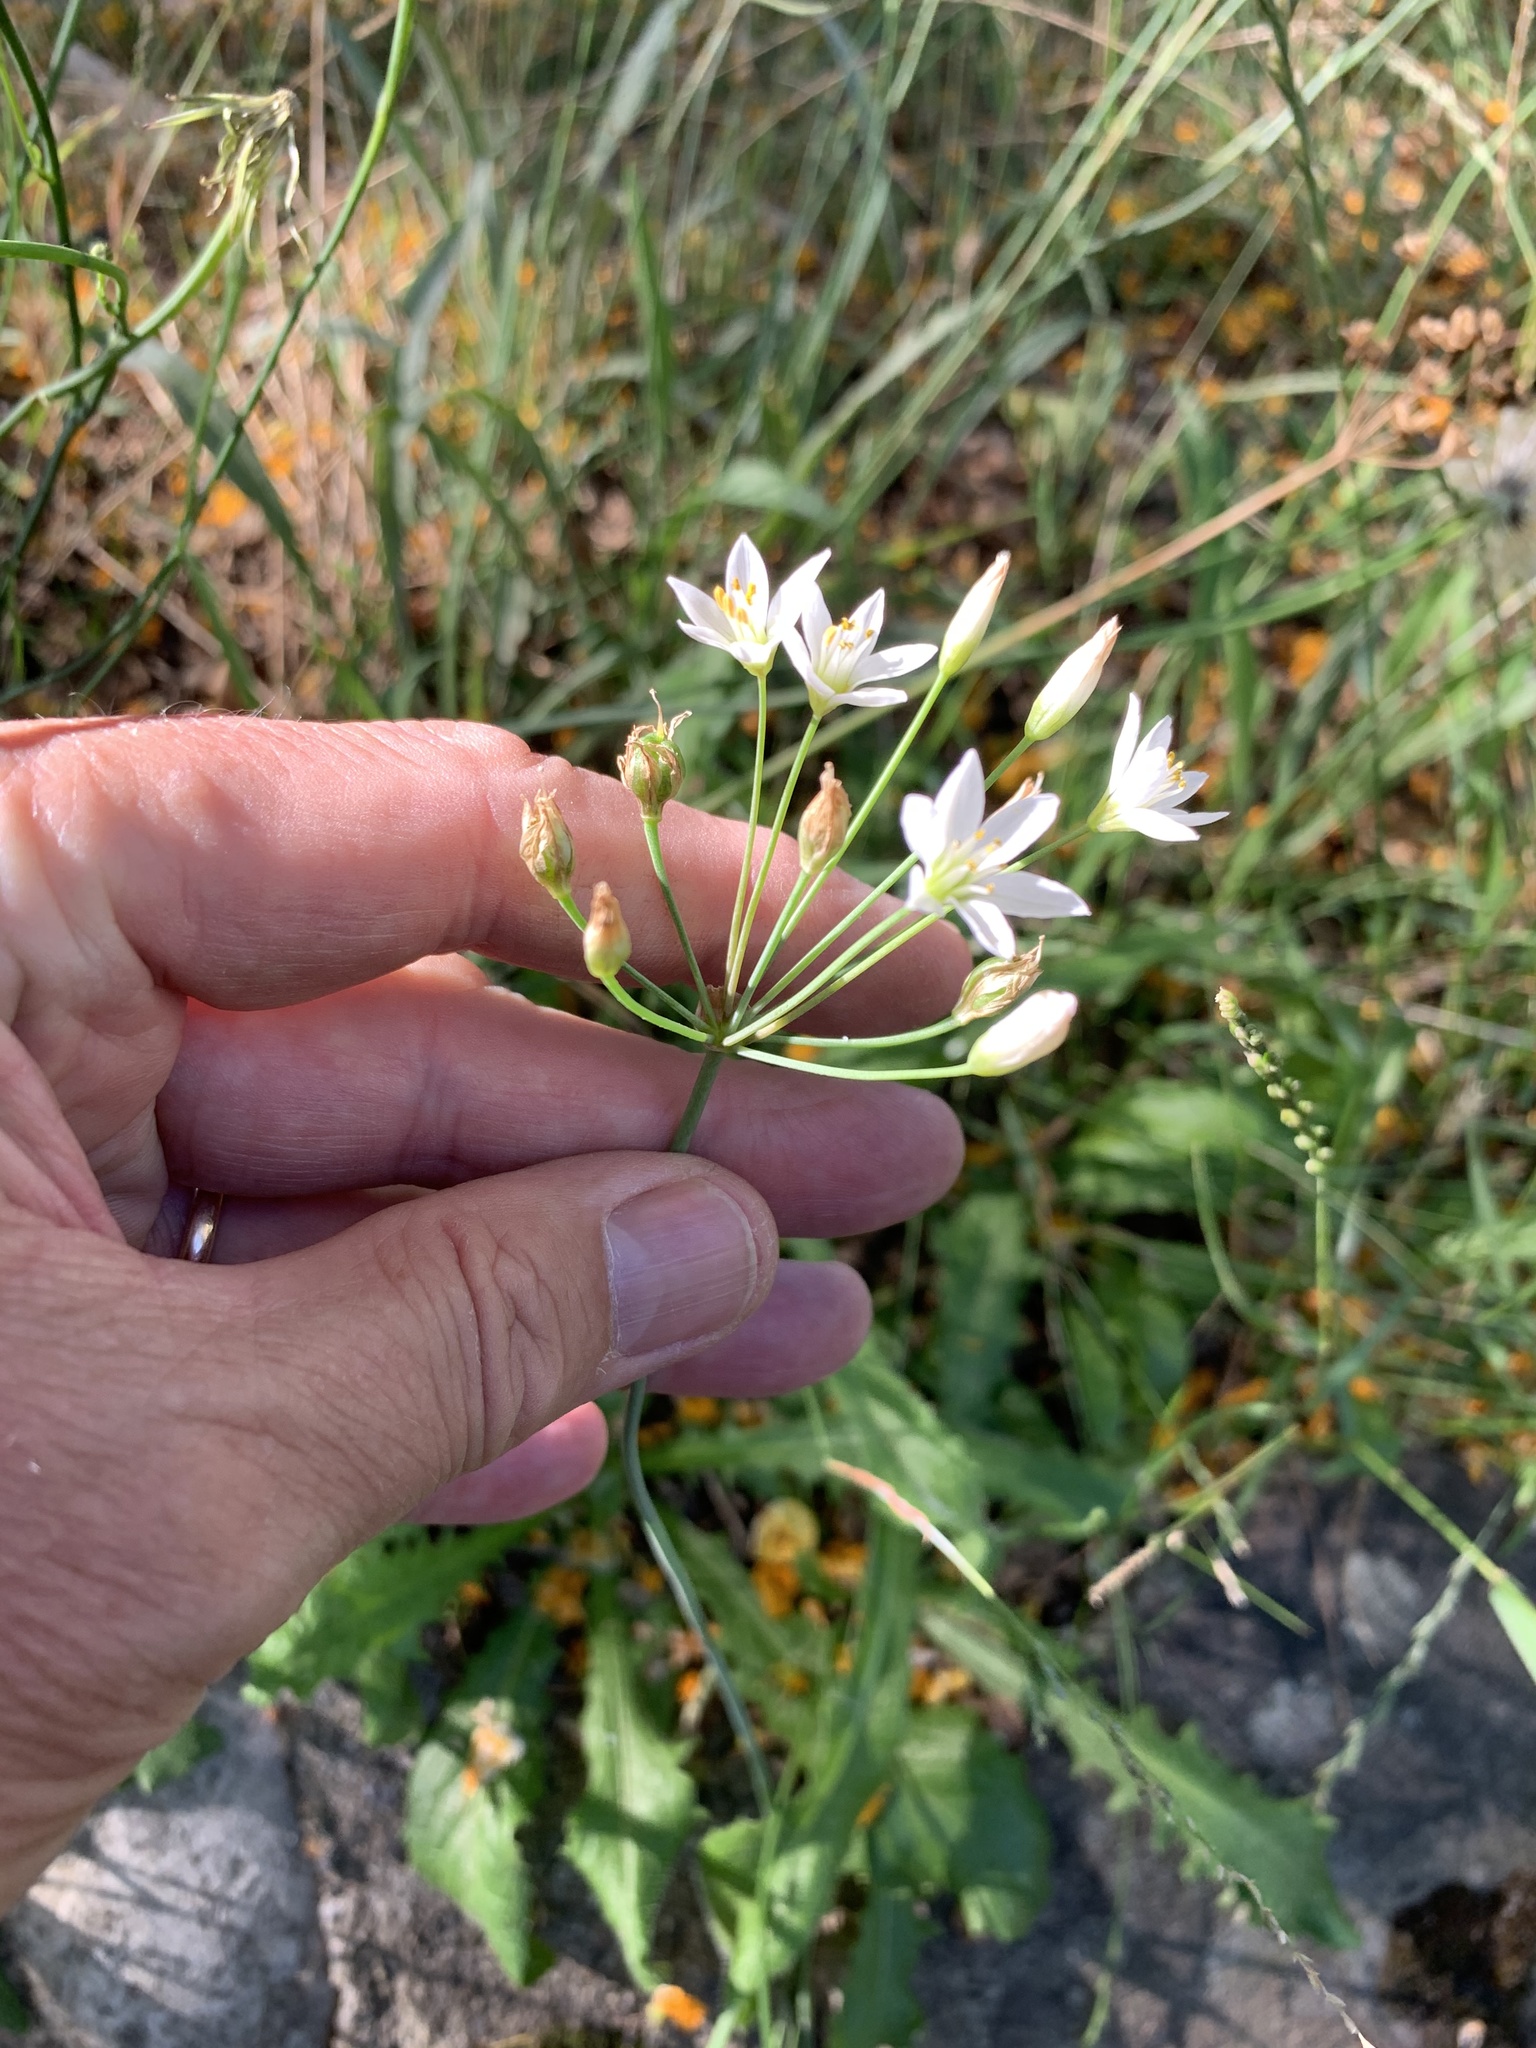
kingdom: Plantae
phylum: Tracheophyta
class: Liliopsida
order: Asparagales
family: Amaryllidaceae
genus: Nothoscordum
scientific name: Nothoscordum gracile
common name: Slender false garlic
